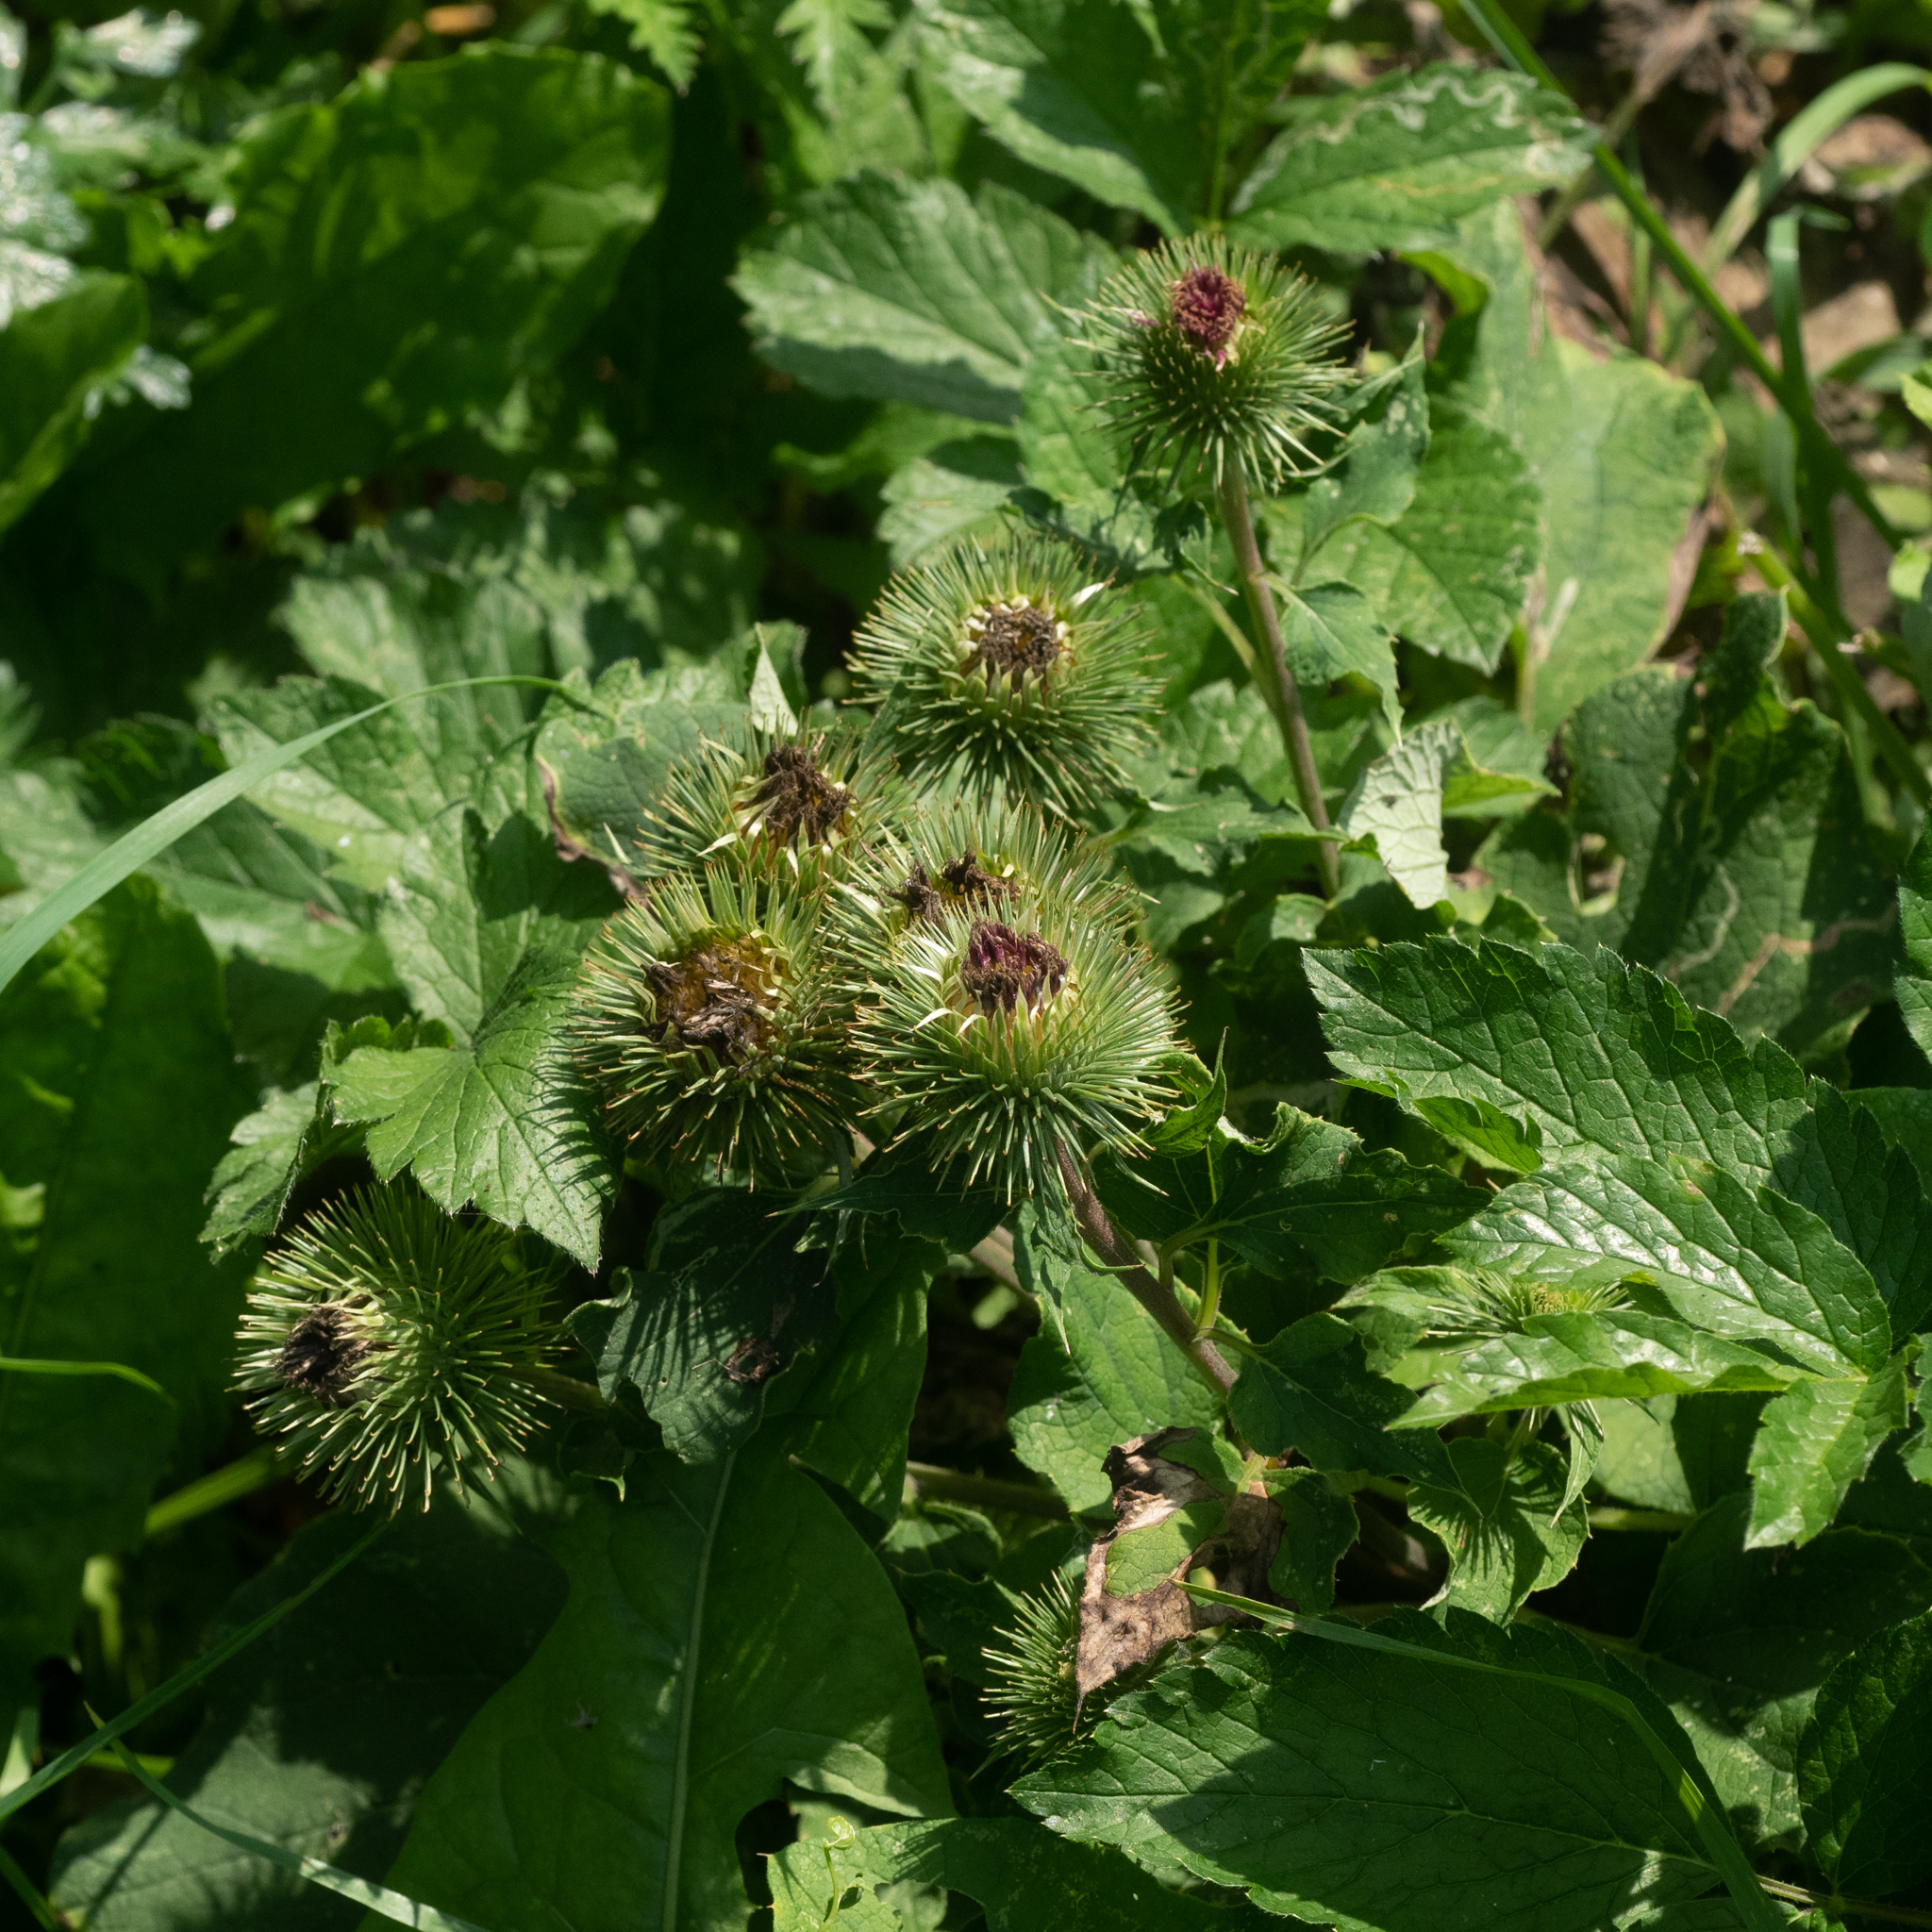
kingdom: Plantae
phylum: Tracheophyta
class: Magnoliopsida
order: Asterales
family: Asteraceae
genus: Arctium
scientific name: Arctium lappa
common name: Greater burdock
